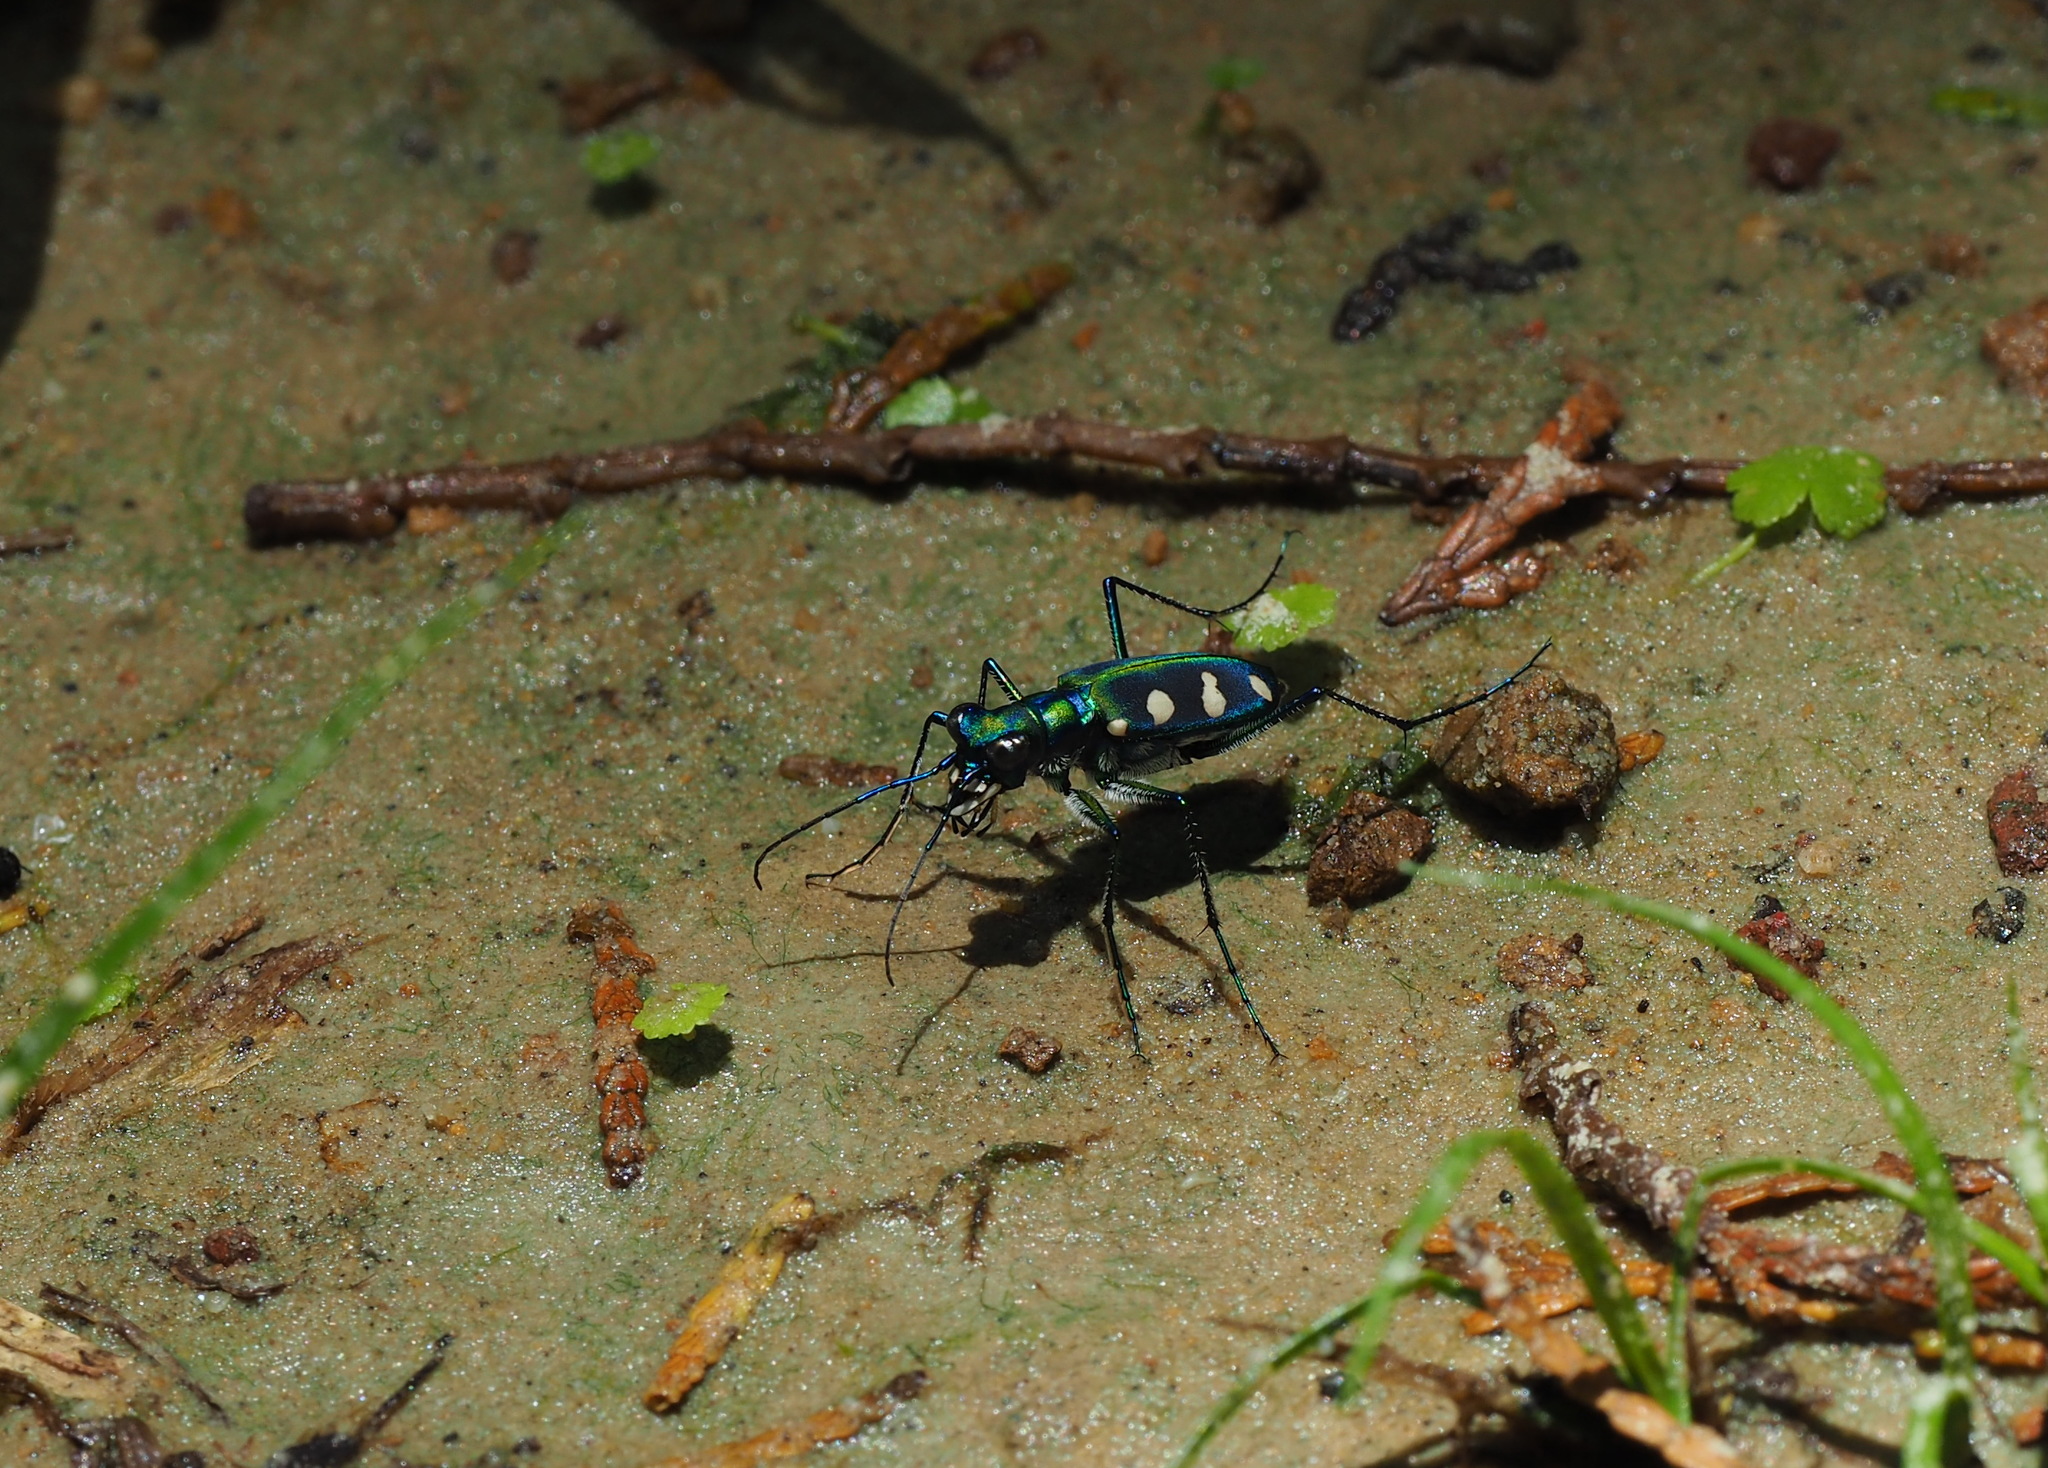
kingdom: Animalia
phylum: Arthropoda
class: Insecta
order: Coleoptera
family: Carabidae
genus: Cicindela
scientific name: Cicindela batesi
